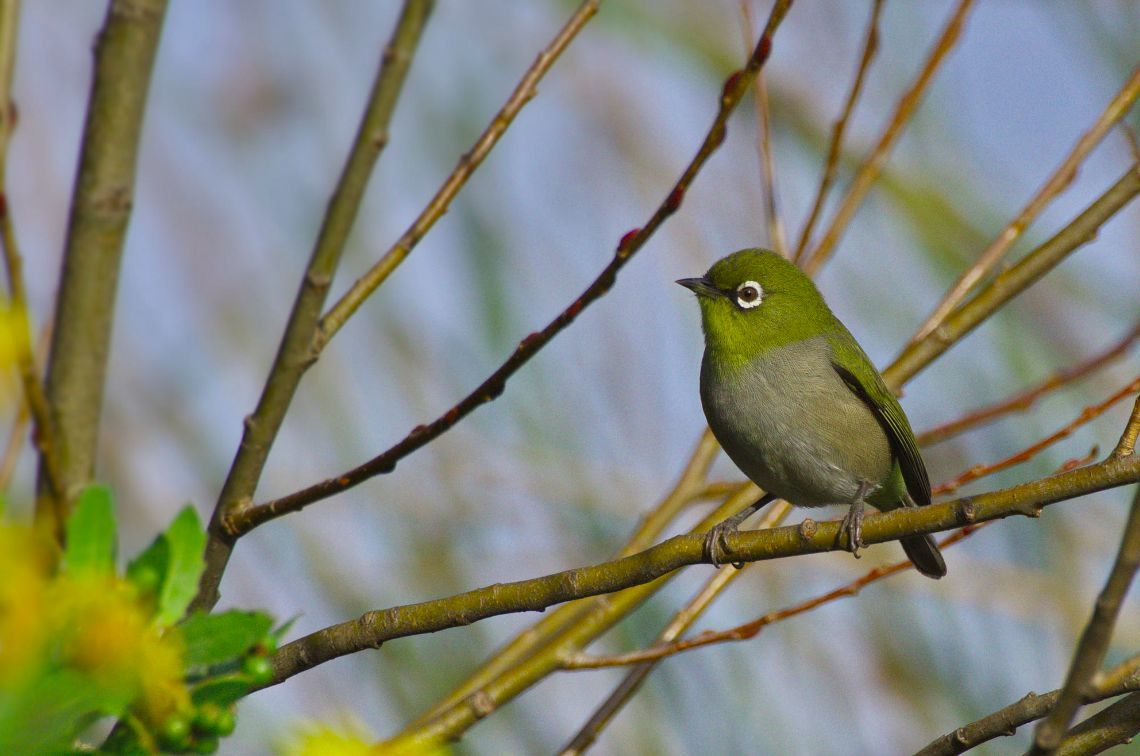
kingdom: Animalia
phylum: Chordata
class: Aves
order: Passeriformes
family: Zosteropidae
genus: Zosterops
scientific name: Zosterops virens
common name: Cape white-eye
